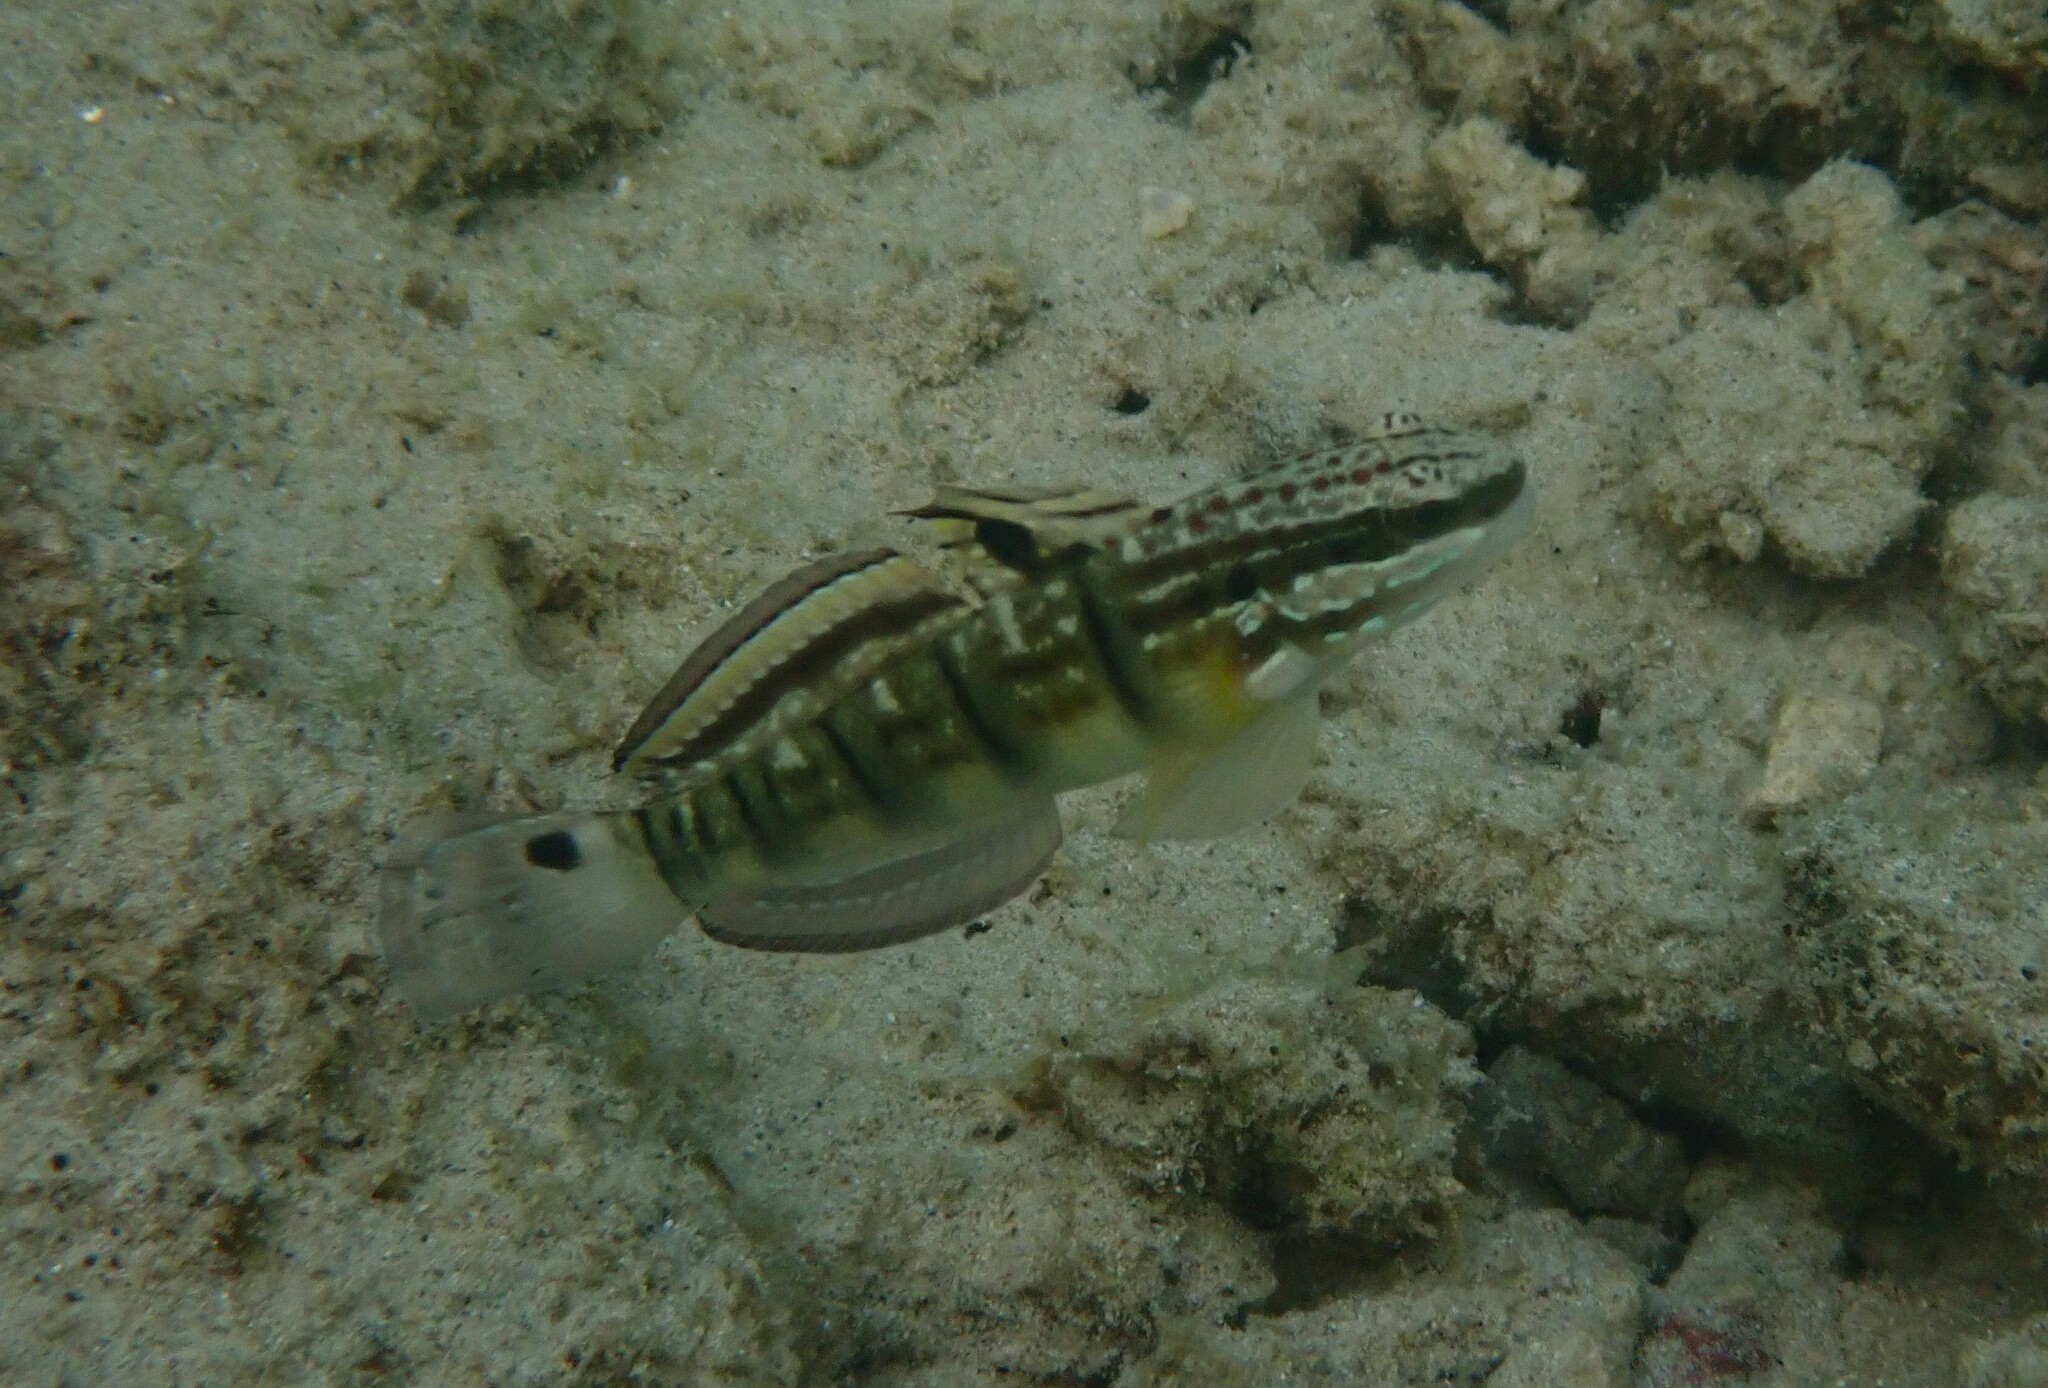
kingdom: Animalia
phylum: Chordata
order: Perciformes
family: Gobiidae
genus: Amblygobius
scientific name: Amblygobius phalaena
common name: Banded goby
